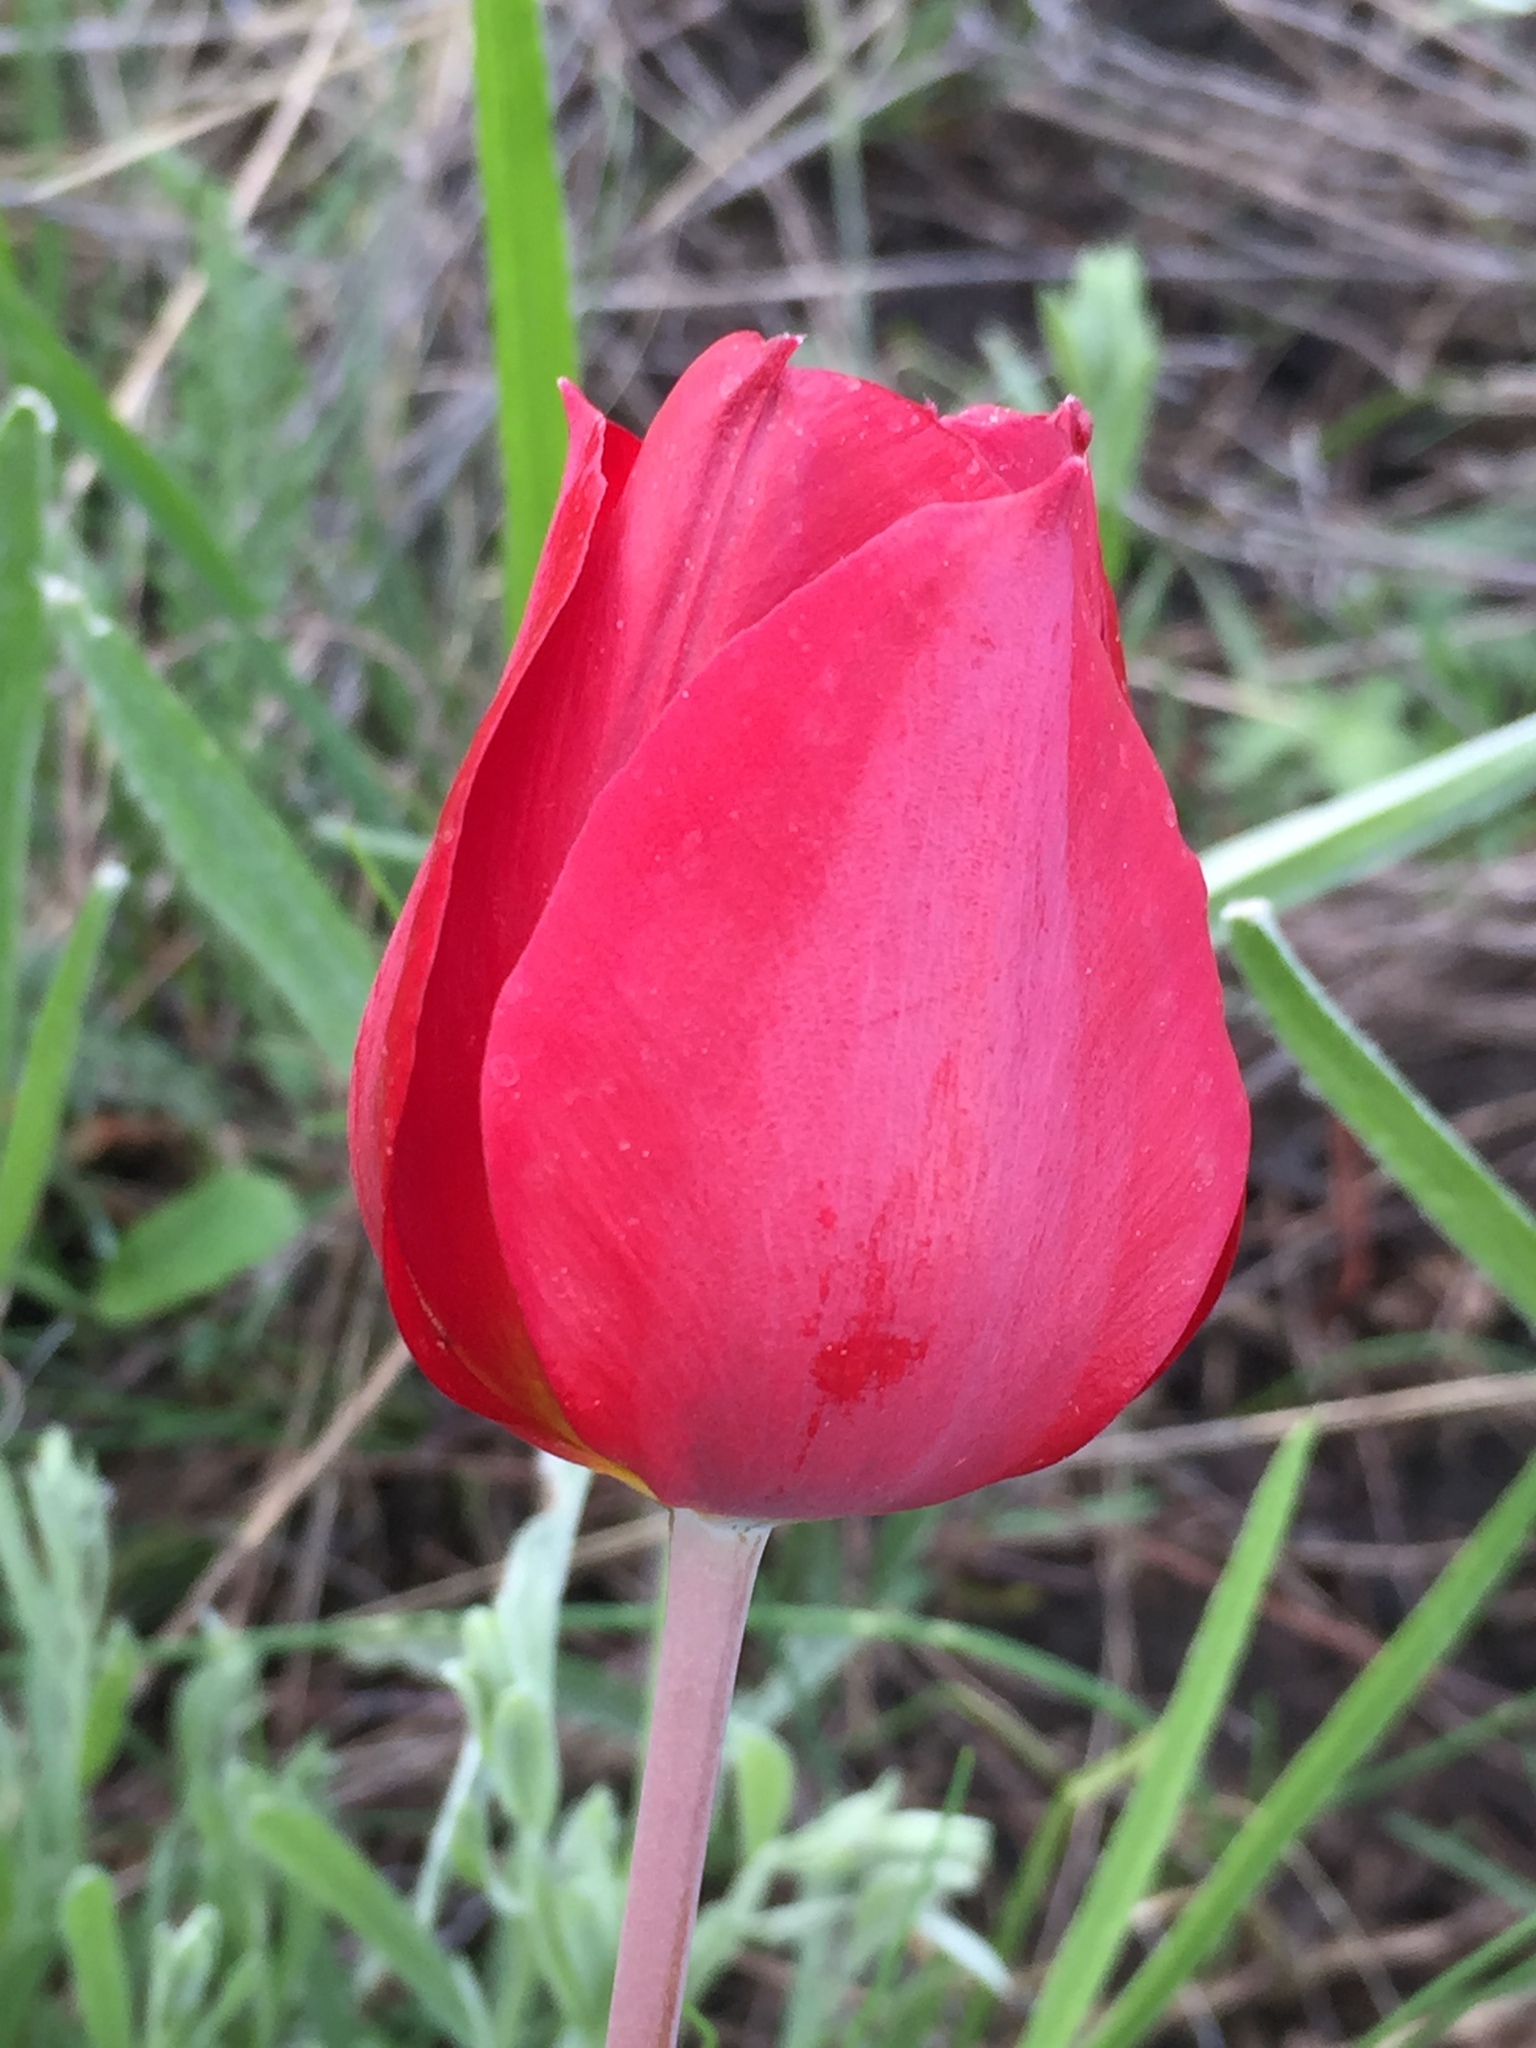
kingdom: Plantae
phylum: Tracheophyta
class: Liliopsida
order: Liliales
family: Liliaceae
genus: Tulipa
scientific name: Tulipa suaveolens
